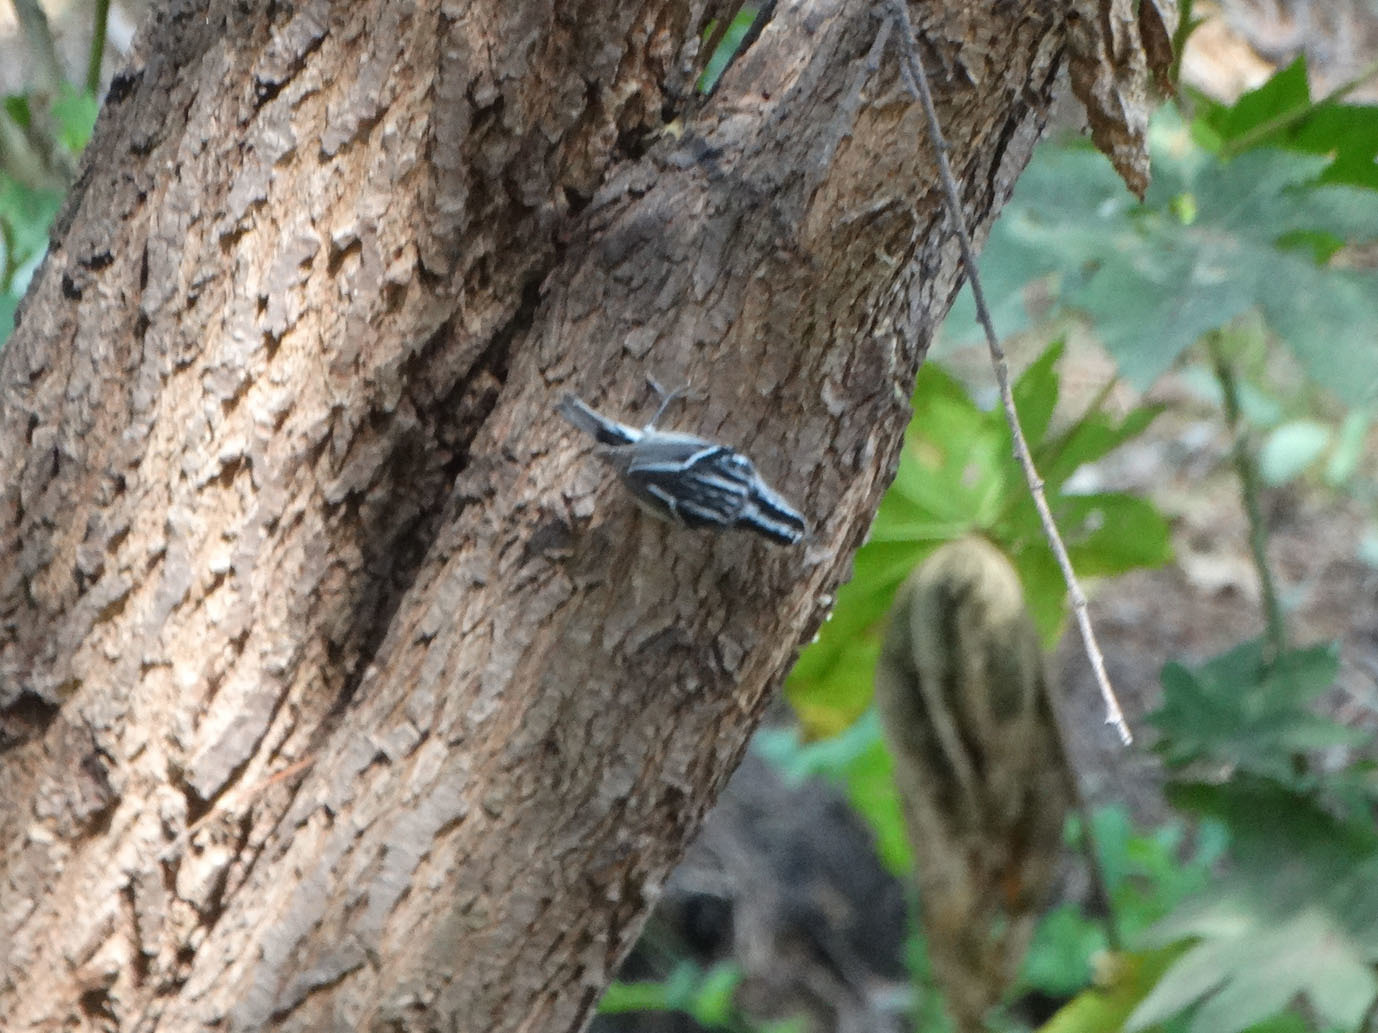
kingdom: Animalia
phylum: Chordata
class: Aves
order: Passeriformes
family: Parulidae
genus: Mniotilta
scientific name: Mniotilta varia
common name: Black-and-white warbler
